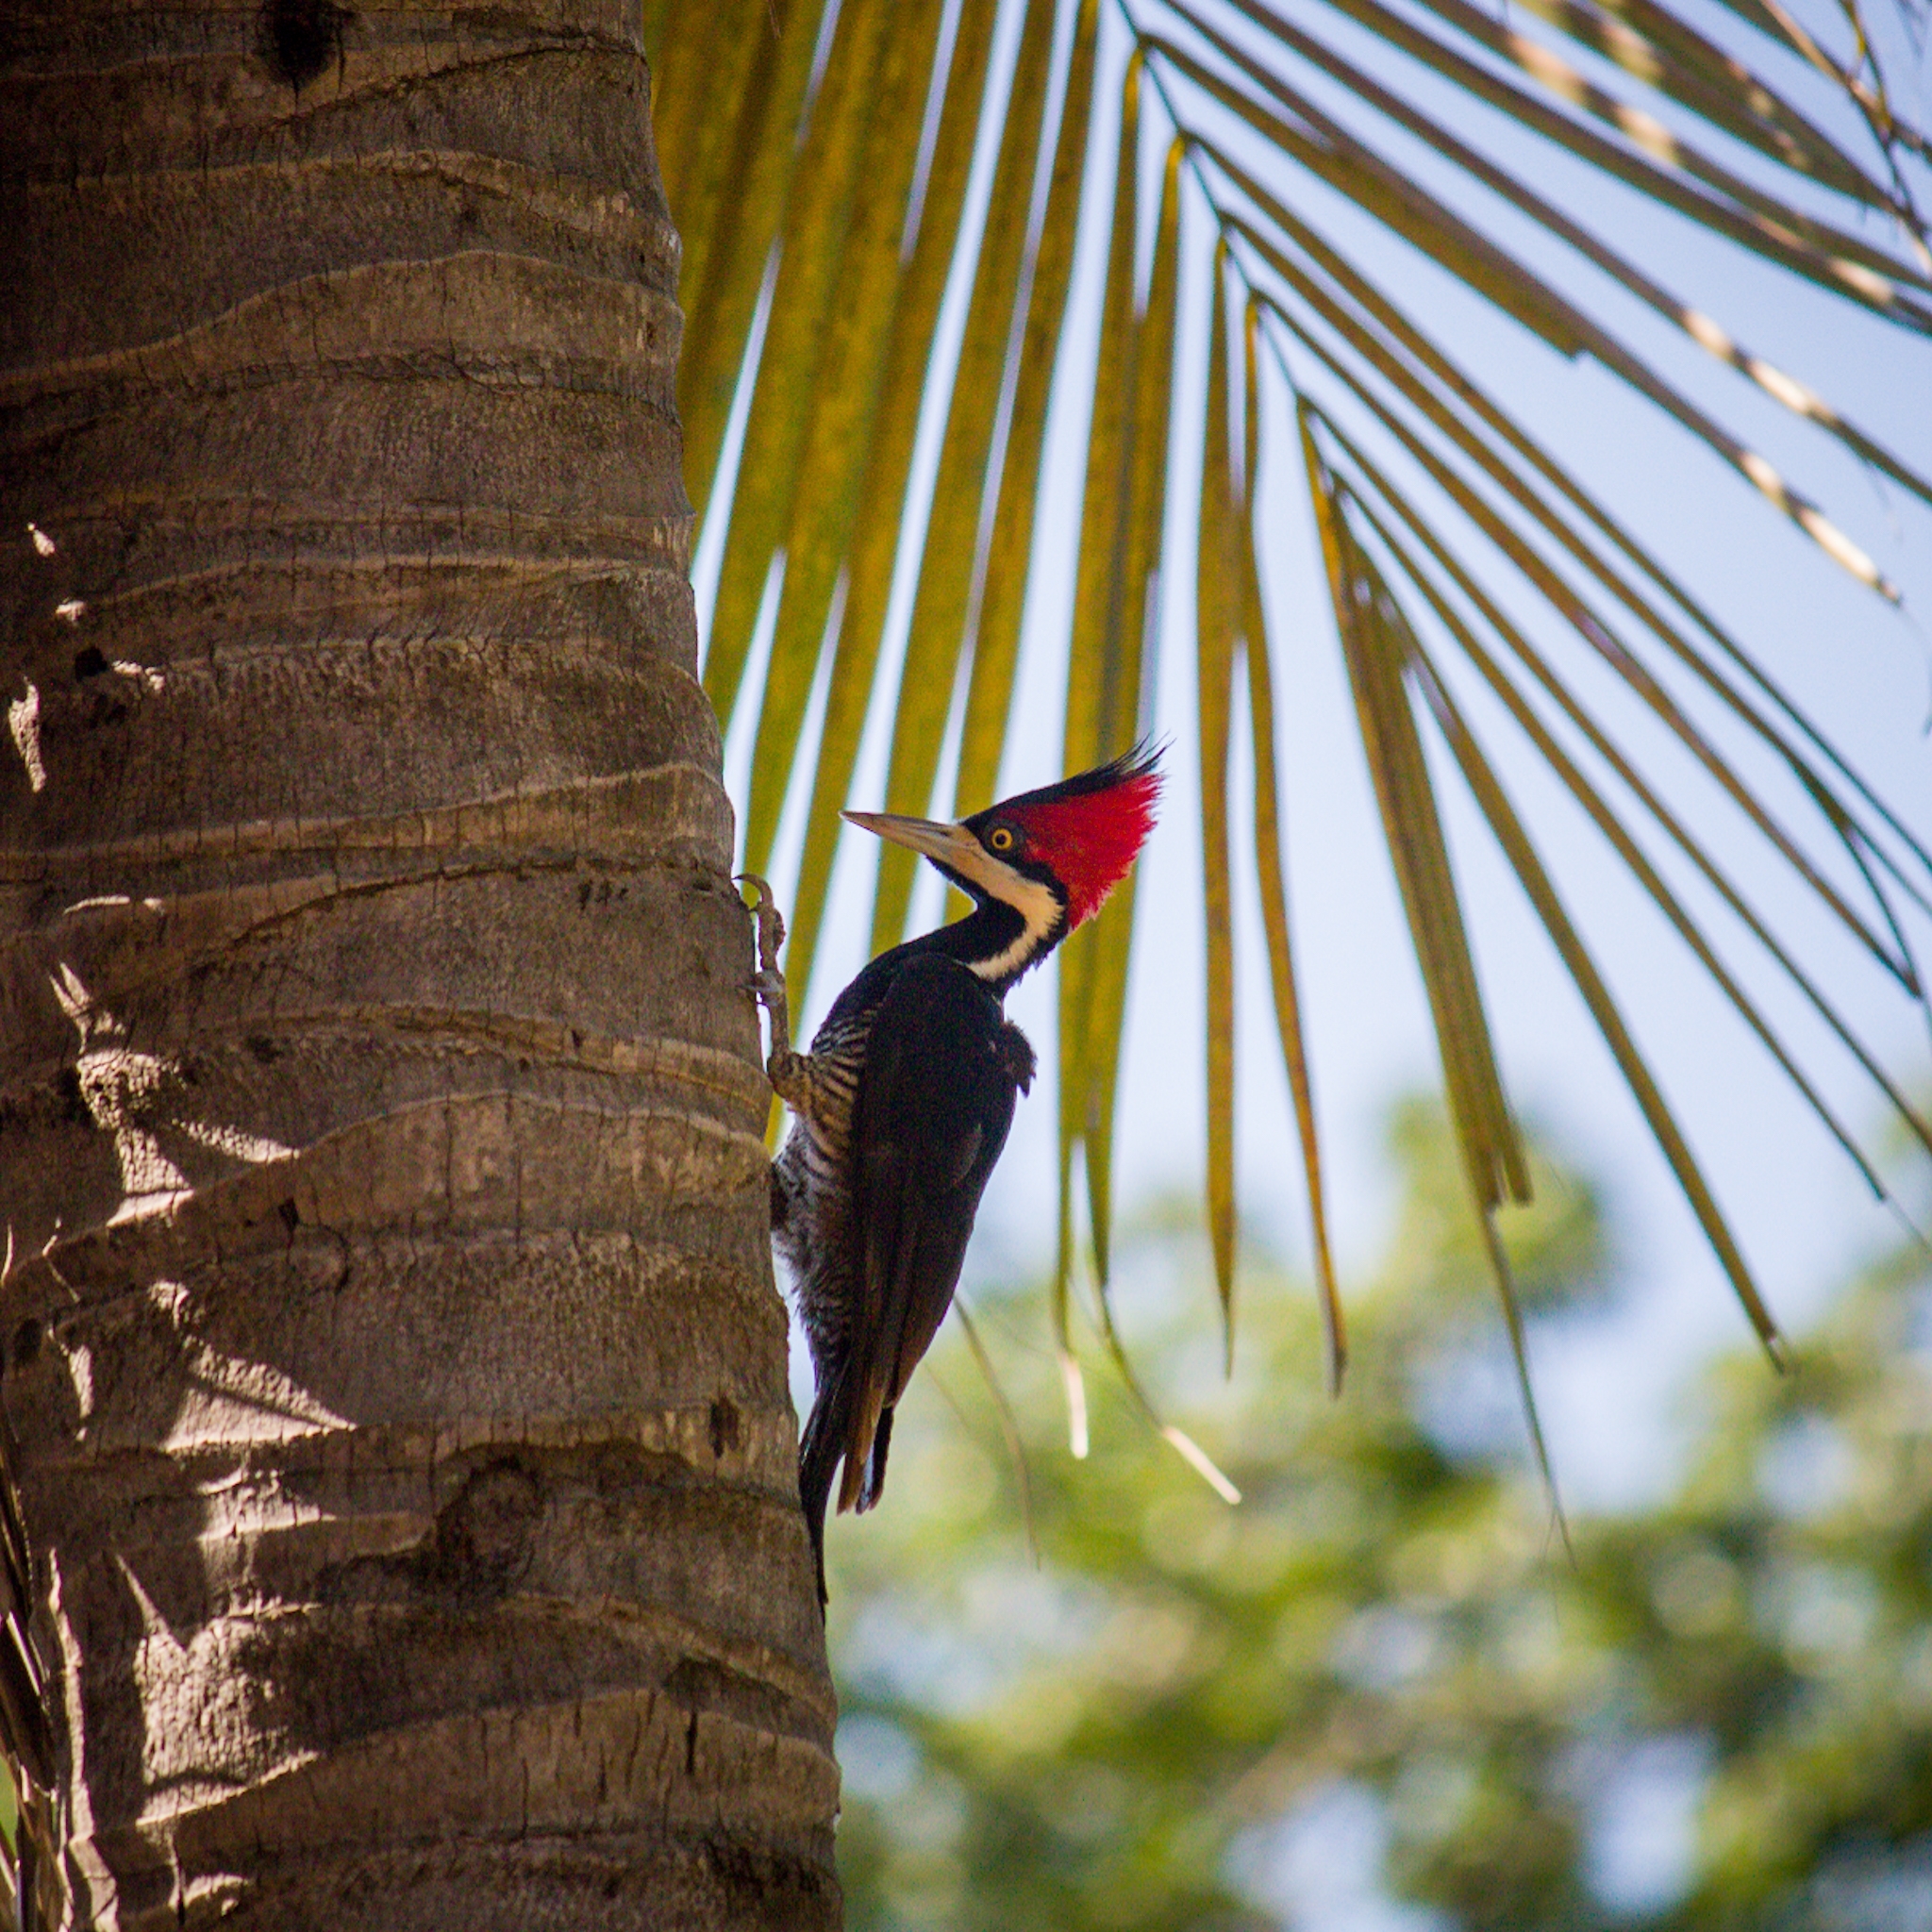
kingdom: Animalia
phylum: Chordata
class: Aves
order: Piciformes
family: Picidae
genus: Campephilus
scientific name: Campephilus melanoleucos
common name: Crimson-crested woodpecker
